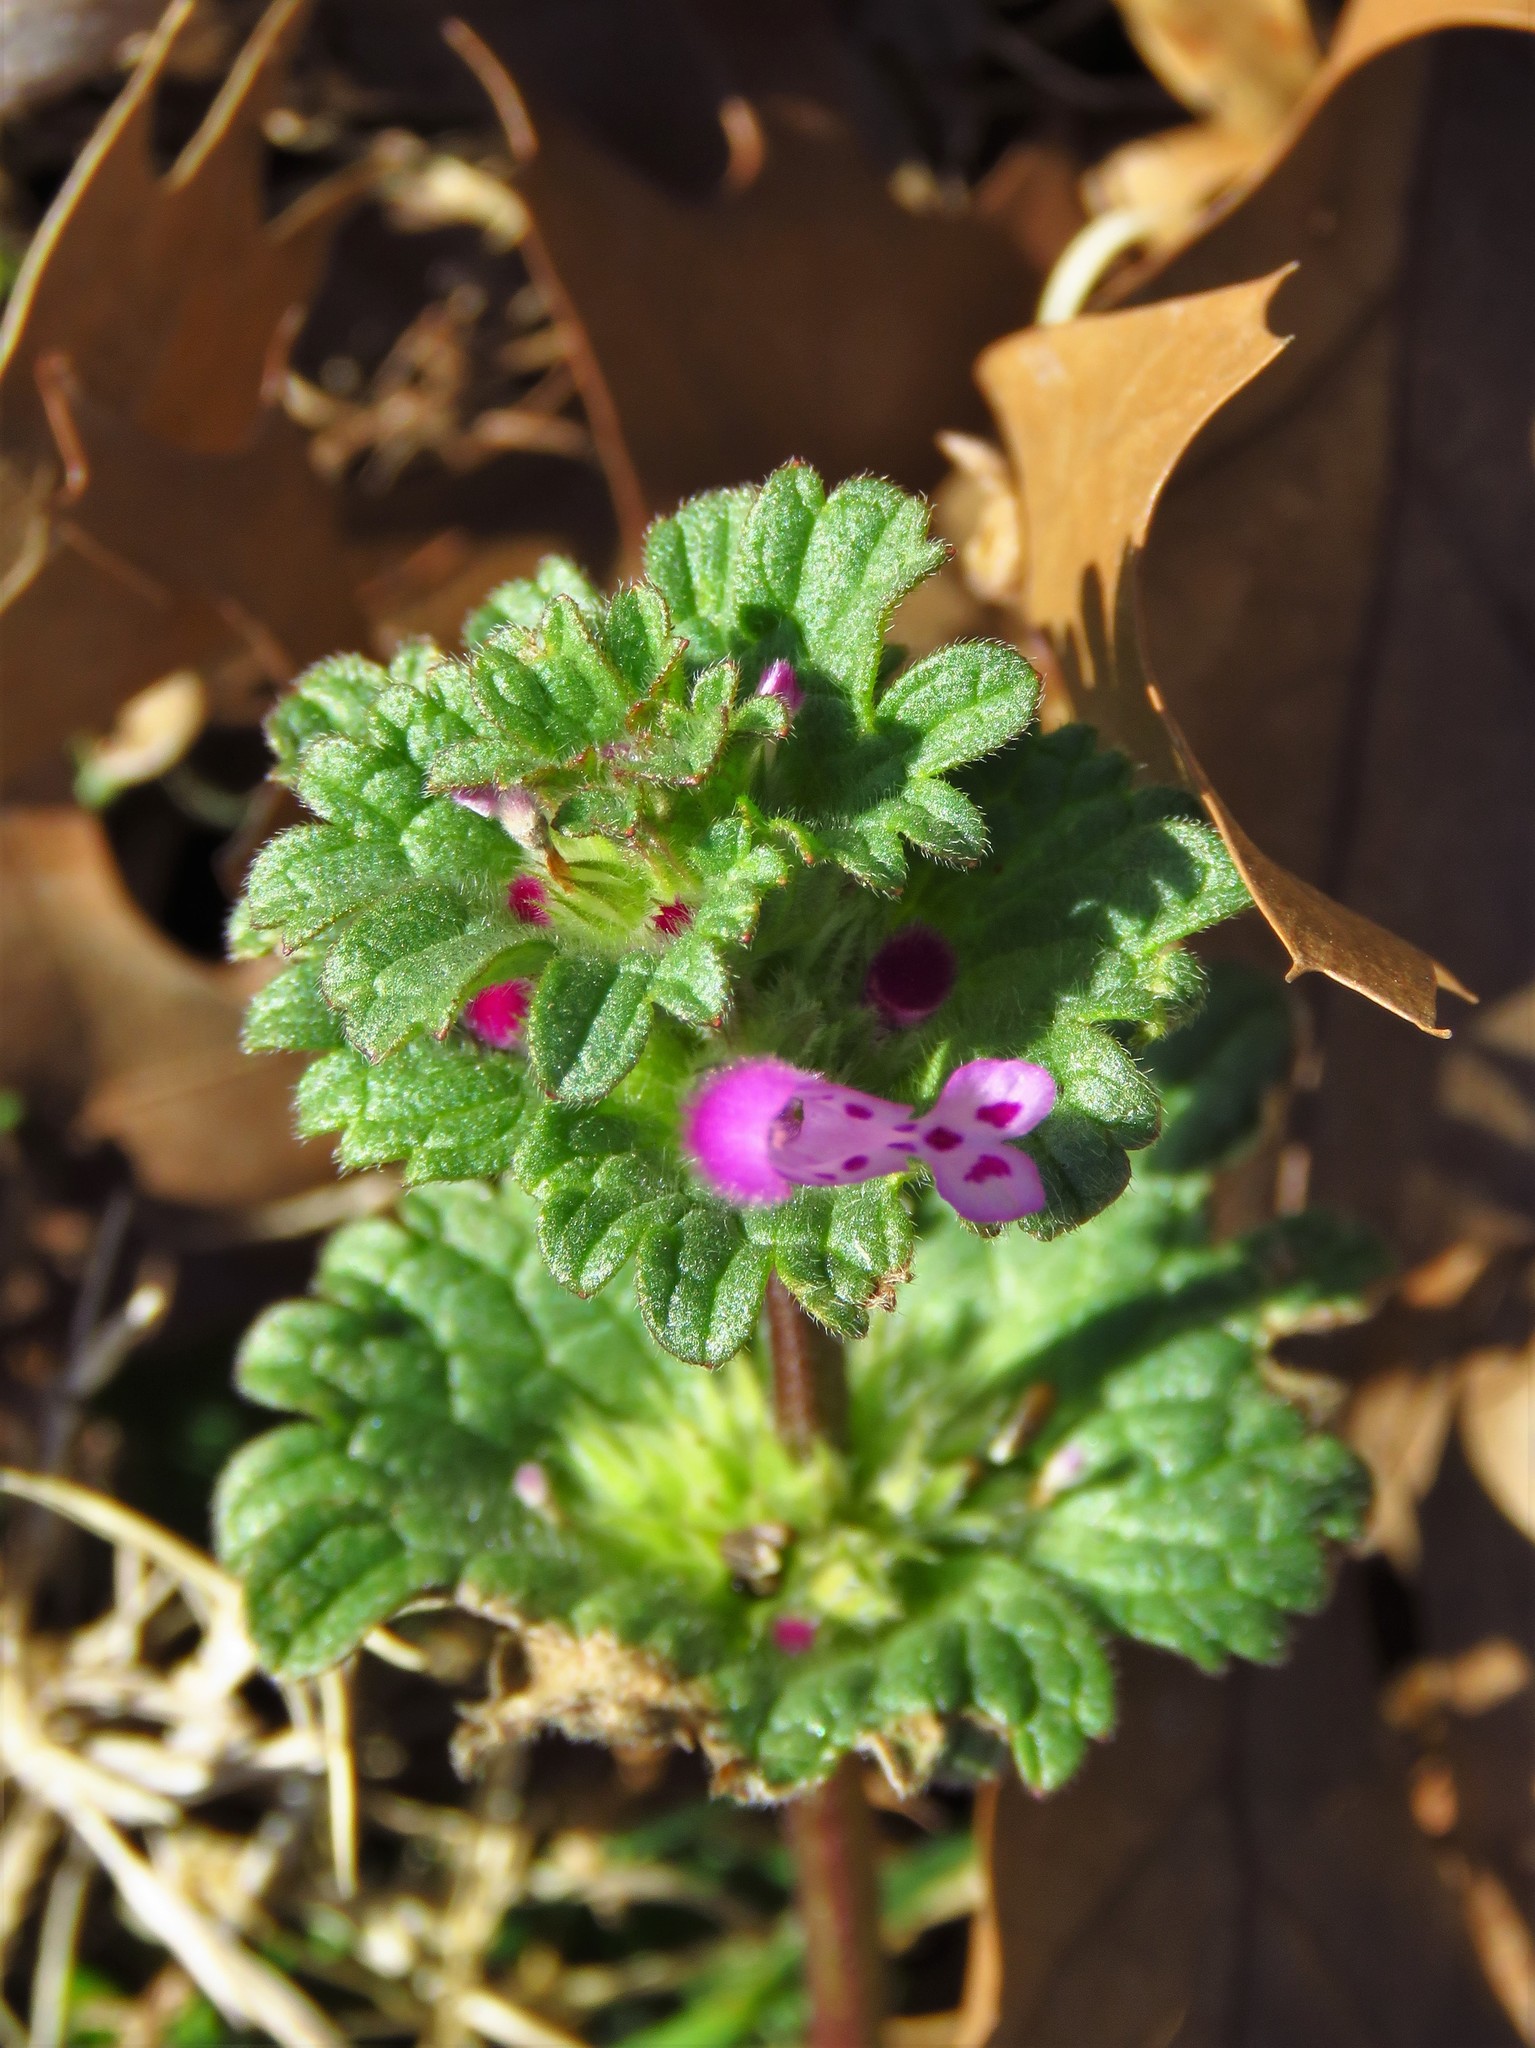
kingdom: Plantae
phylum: Tracheophyta
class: Magnoliopsida
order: Lamiales
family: Lamiaceae
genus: Lamium
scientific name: Lamium amplexicaule
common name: Henbit dead-nettle
